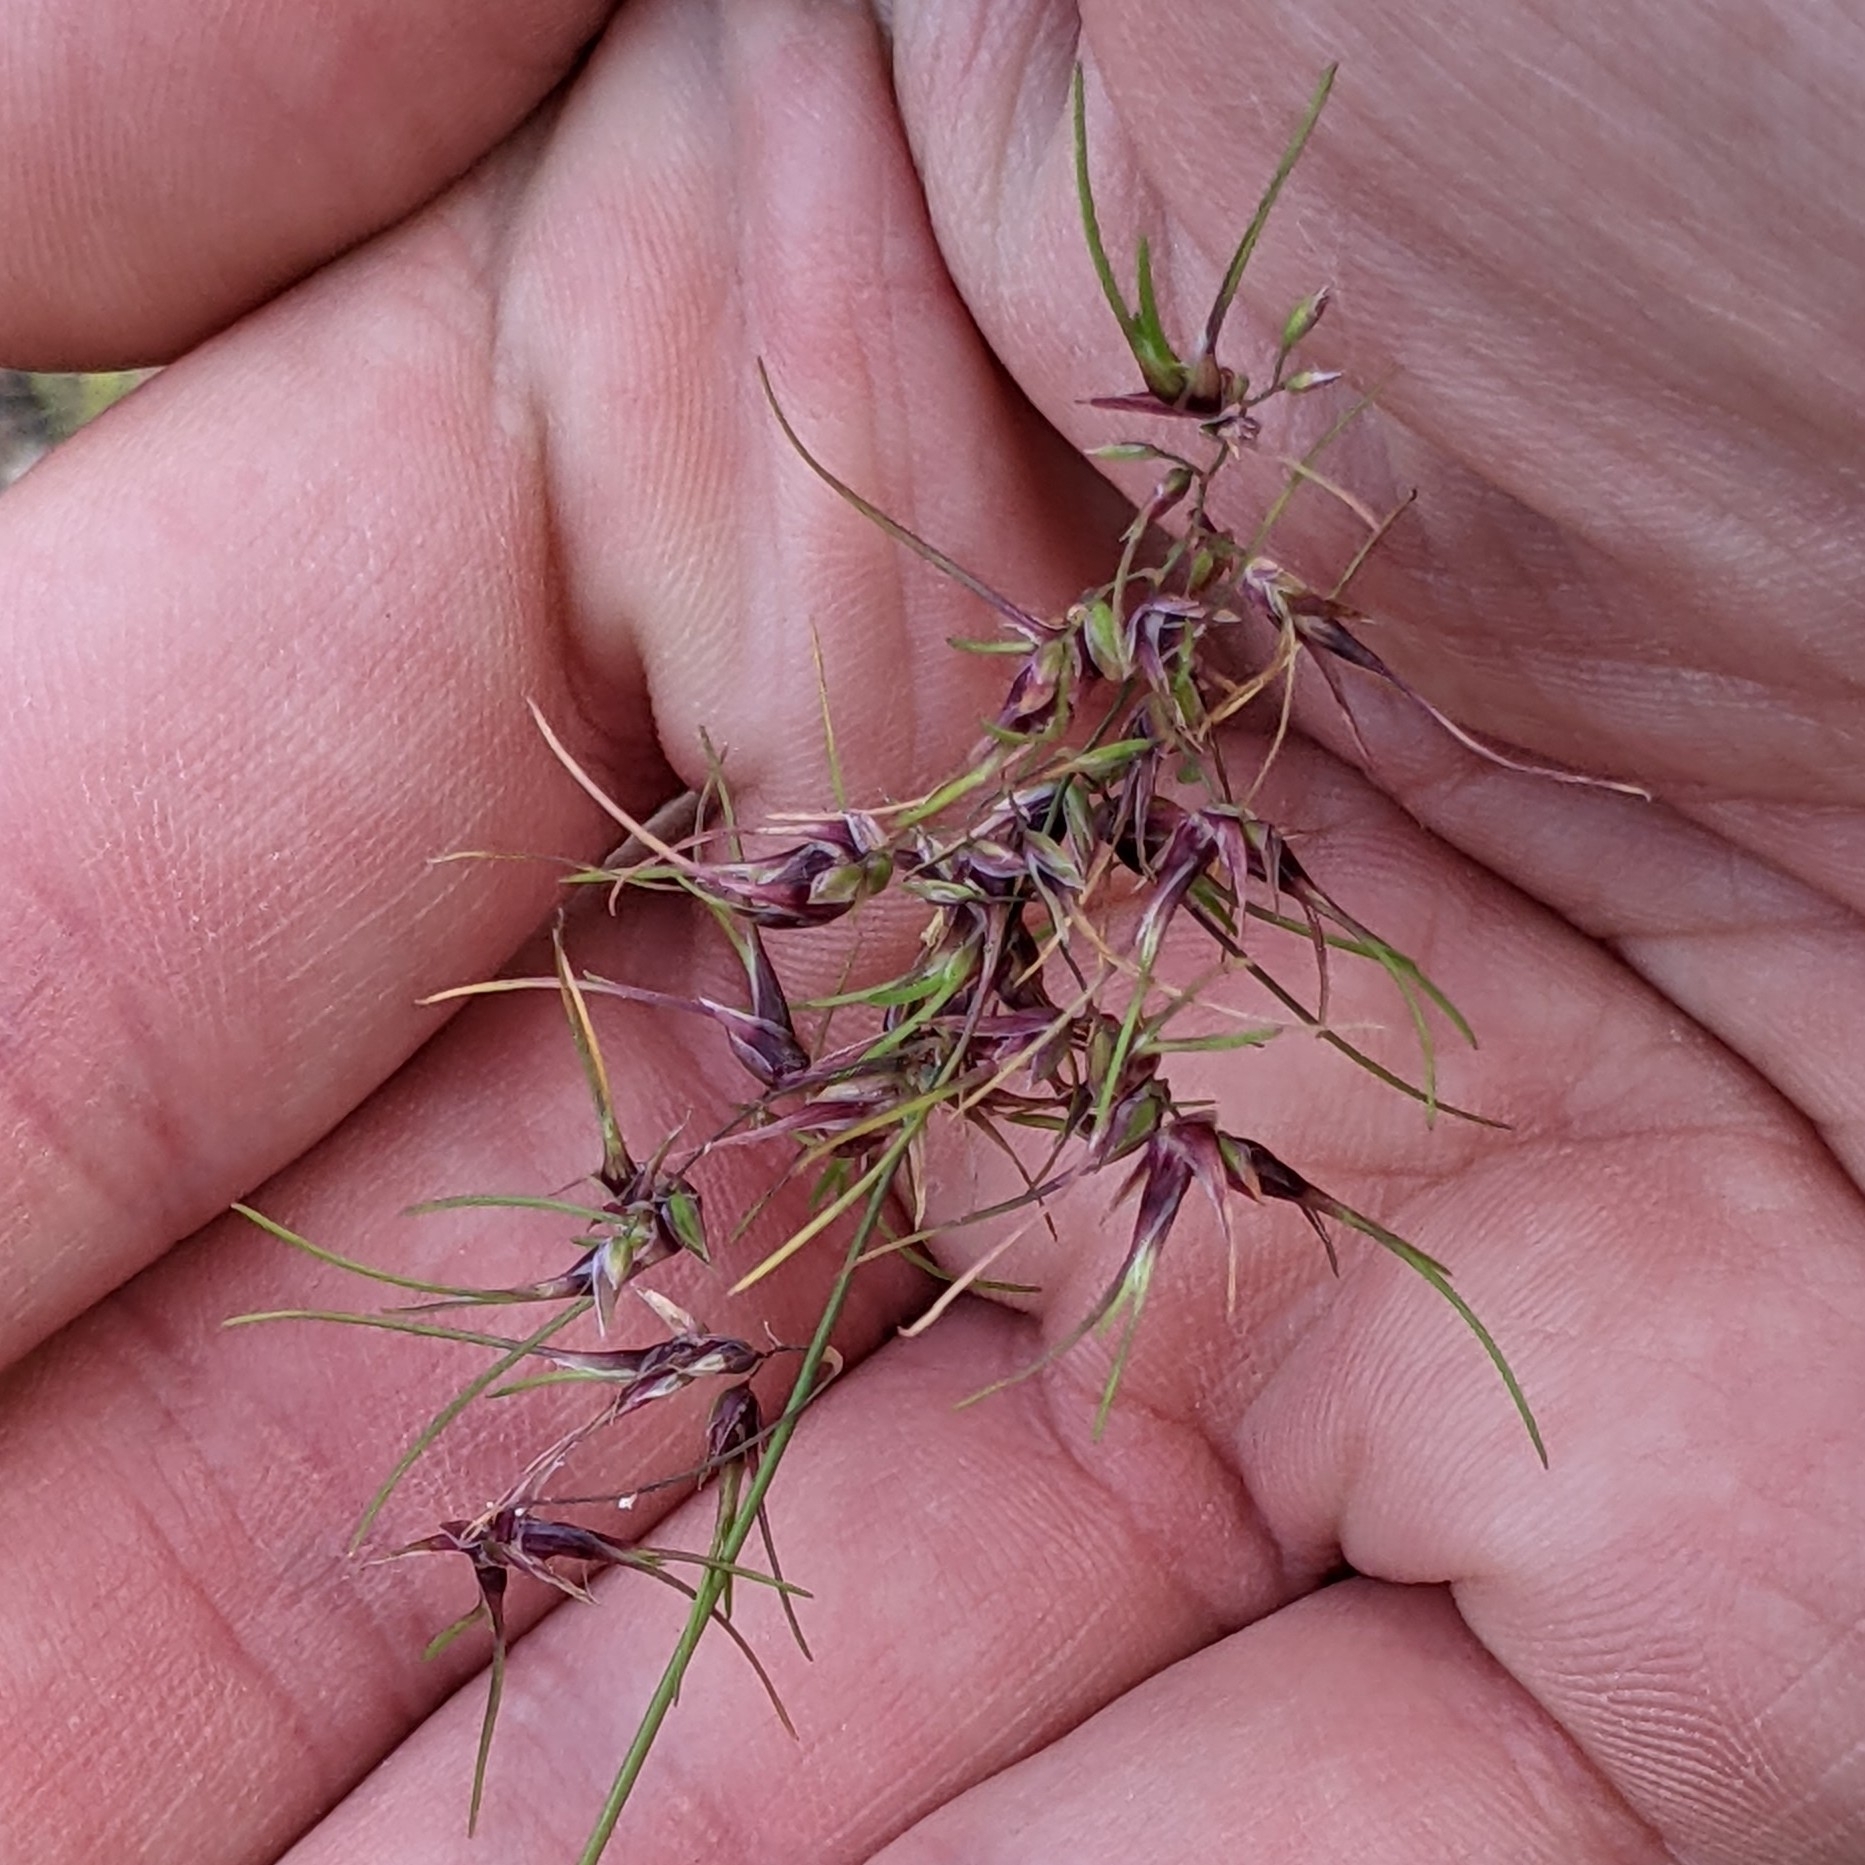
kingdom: Plantae
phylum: Tracheophyta
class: Liliopsida
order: Poales
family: Poaceae
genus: Poa
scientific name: Poa bulbosa
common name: Bulbous bluegrass
